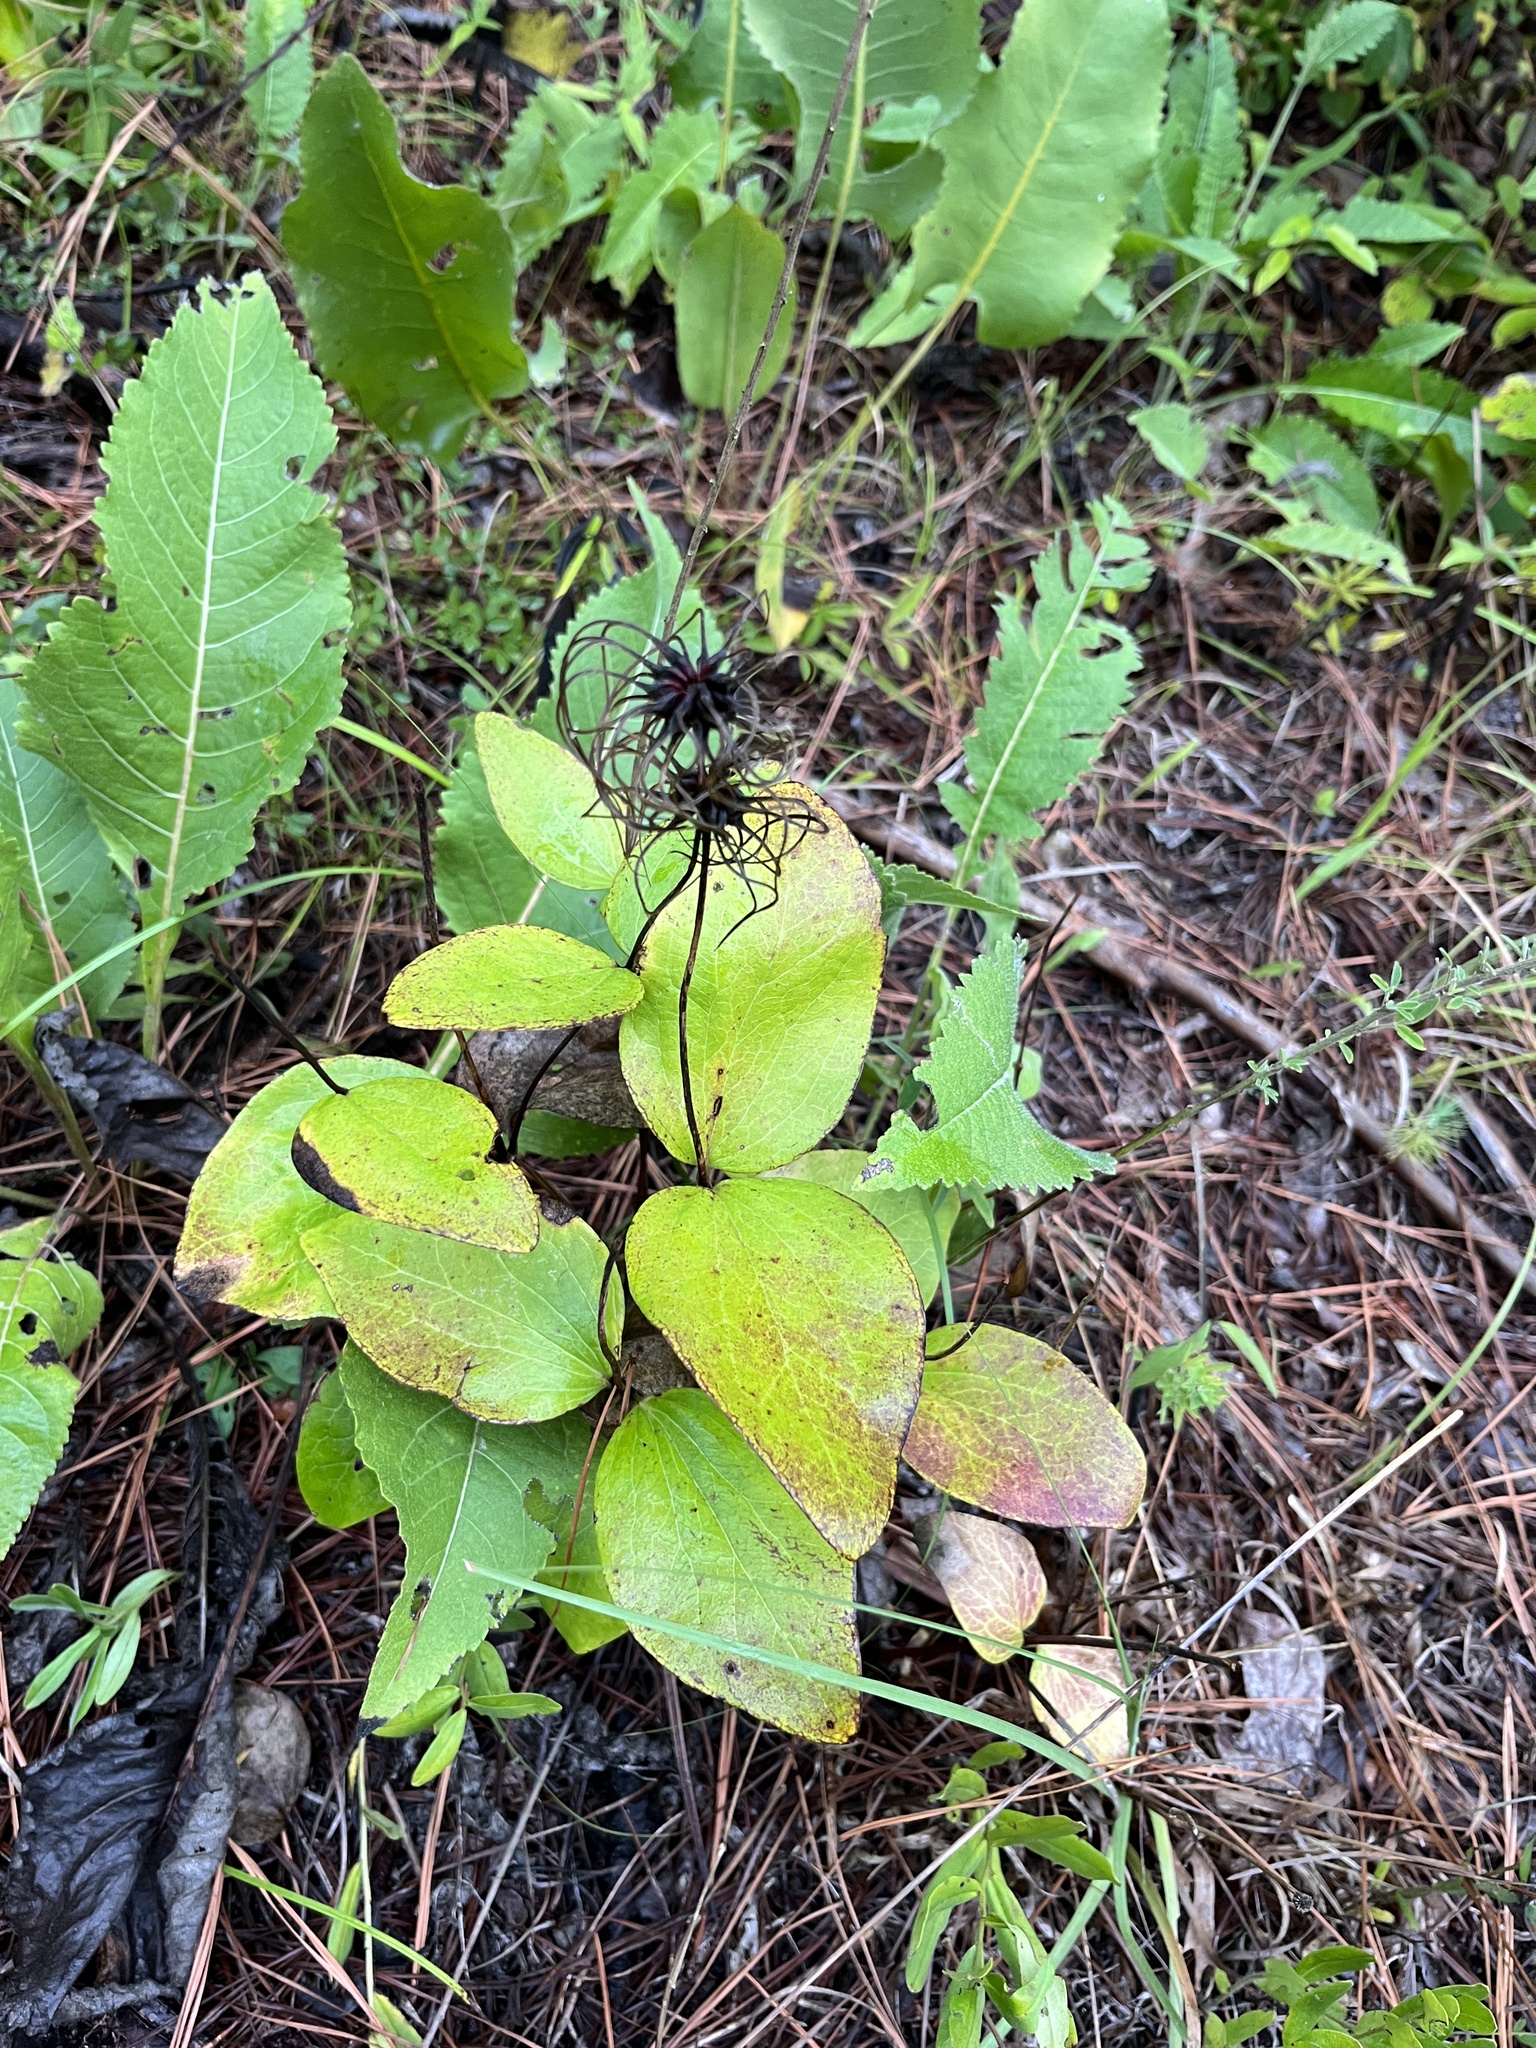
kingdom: Plantae
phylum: Tracheophyta
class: Magnoliopsida
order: Ranunculales
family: Ranunculaceae
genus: Clematis
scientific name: Clematis ochroleuca
